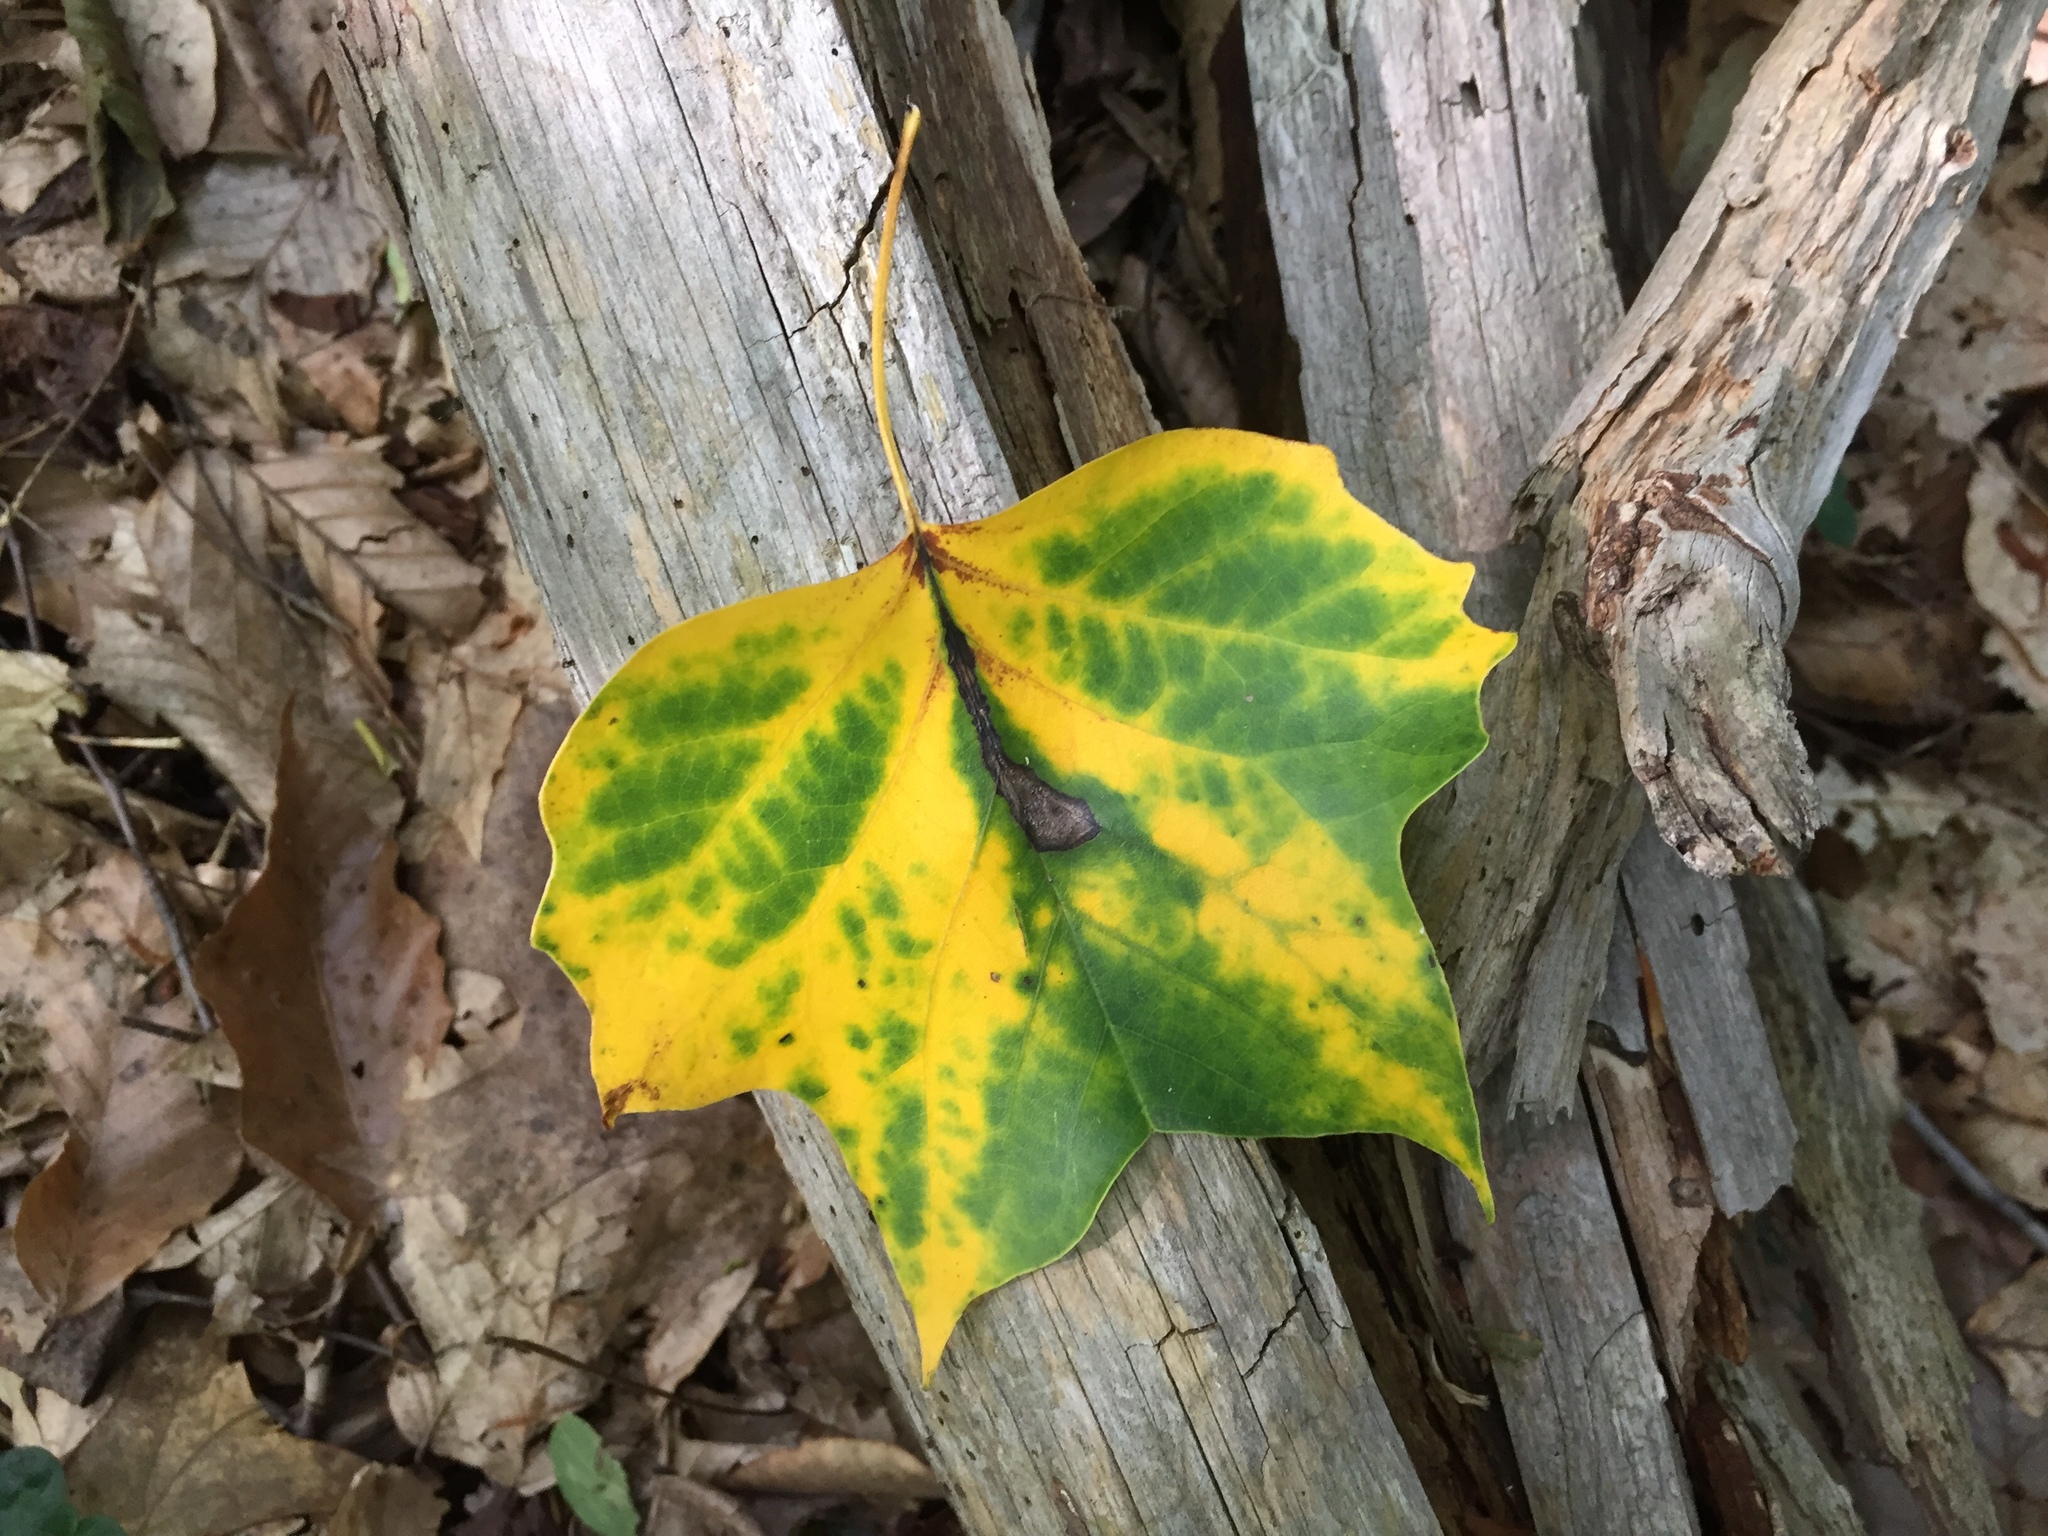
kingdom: Plantae
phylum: Tracheophyta
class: Magnoliopsida
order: Magnoliales
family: Magnoliaceae
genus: Liriodendron
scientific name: Liriodendron tulipifera
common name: Tulip tree
